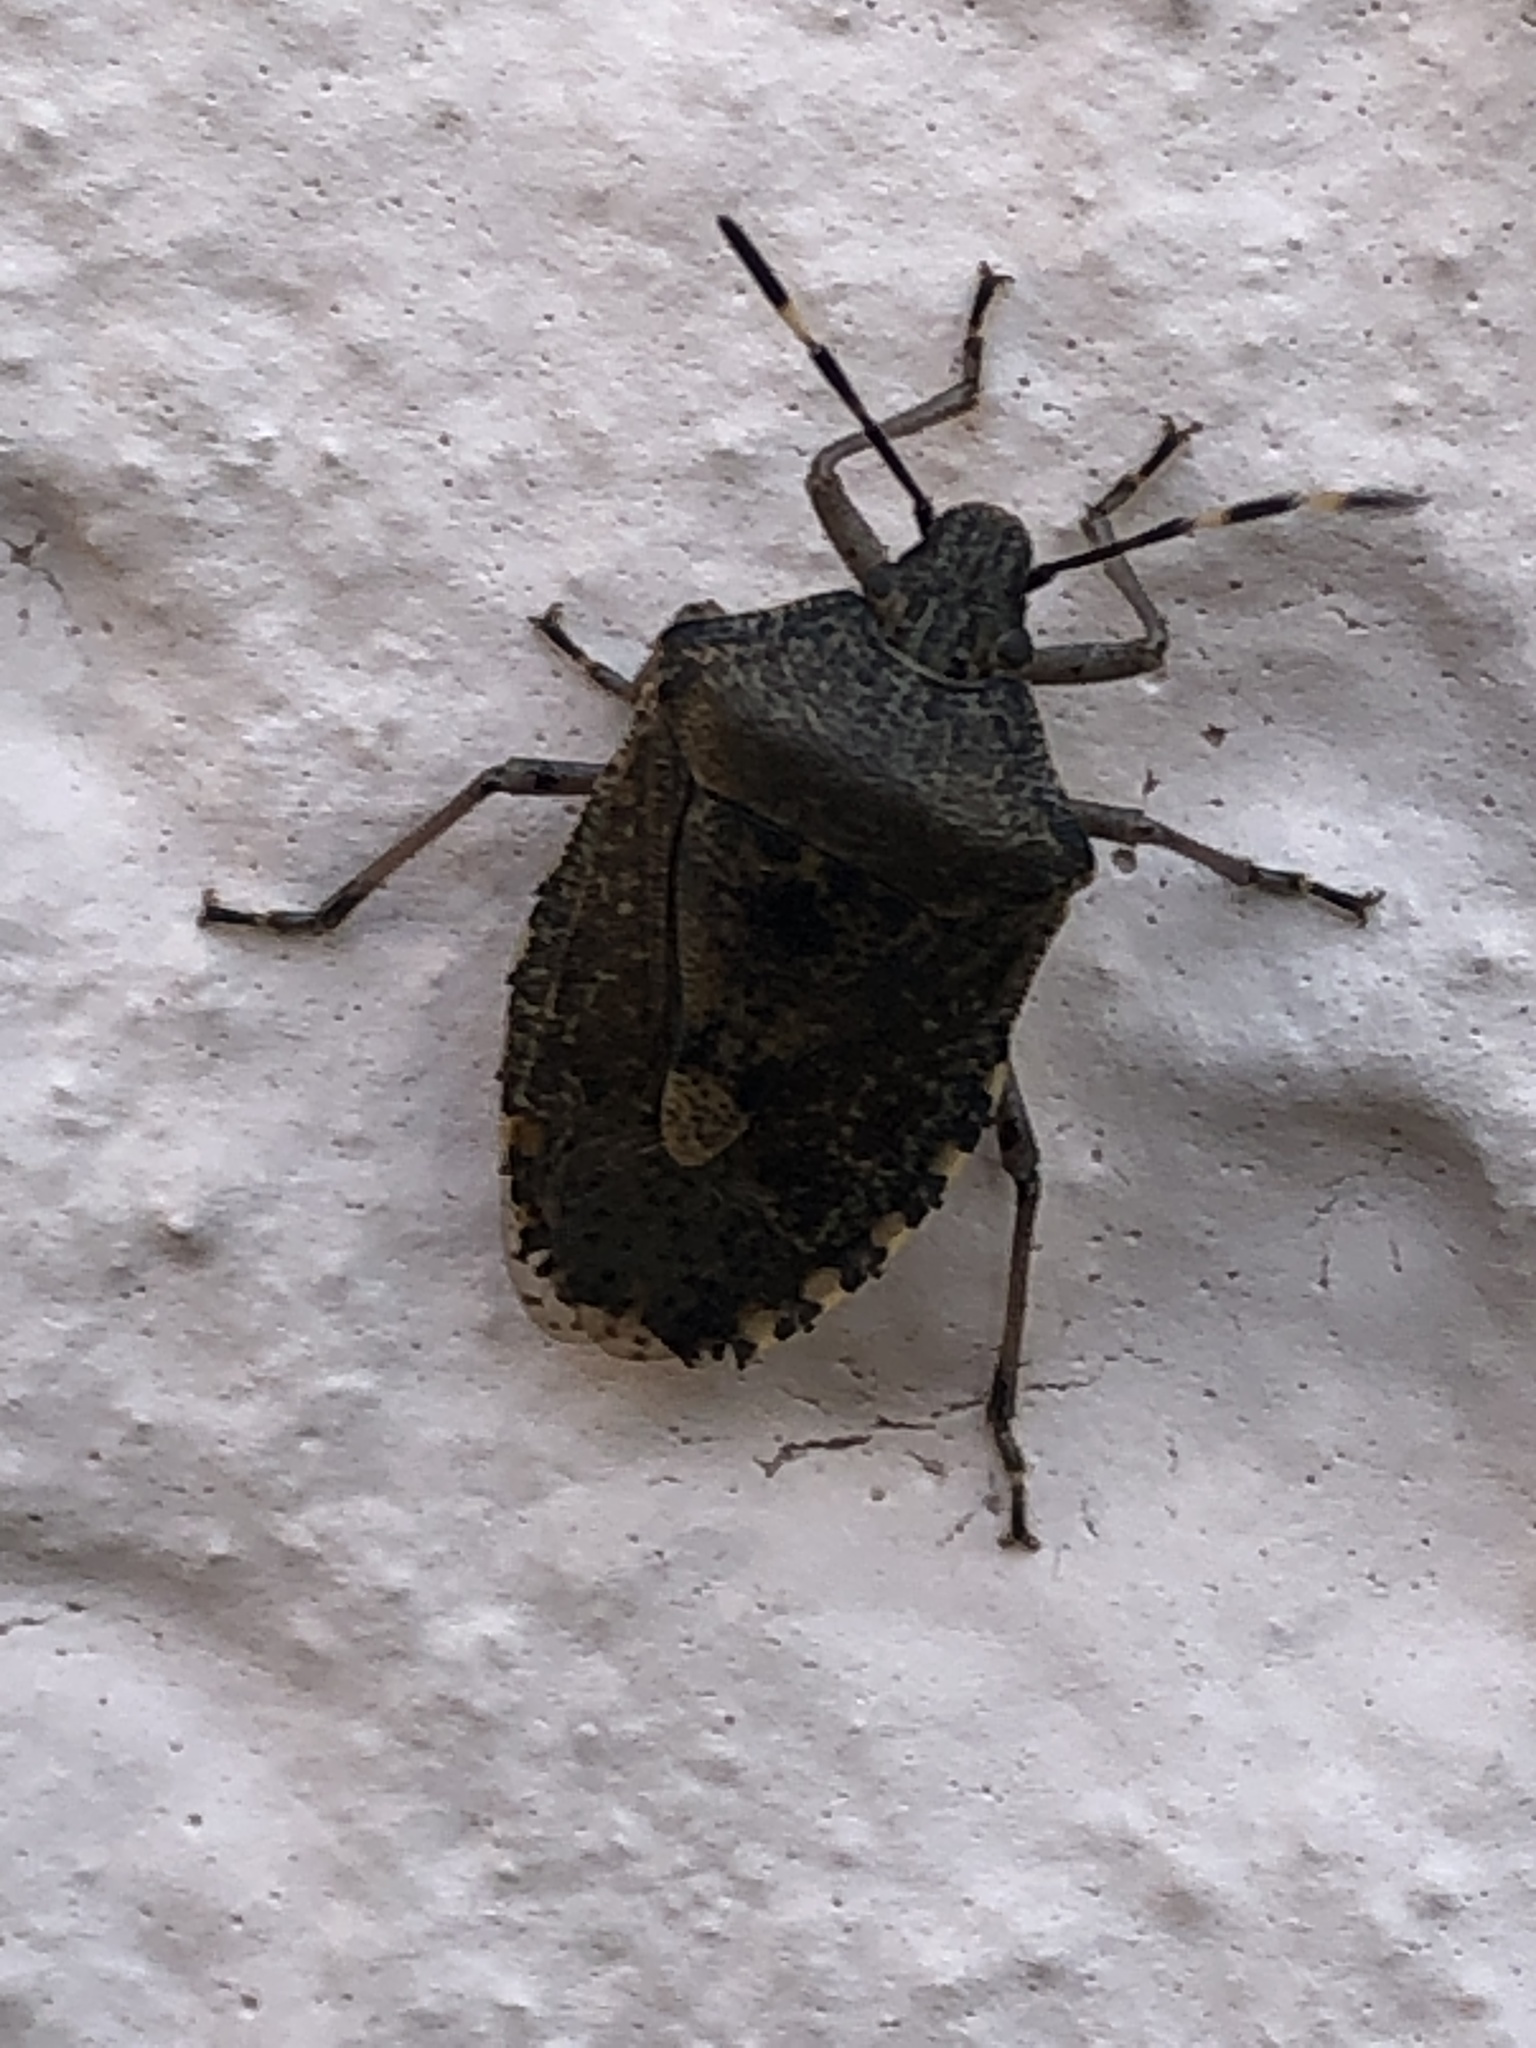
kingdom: Animalia
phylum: Arthropoda
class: Insecta
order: Hemiptera
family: Pentatomidae
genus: Rhaphigaster
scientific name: Rhaphigaster nebulosa
